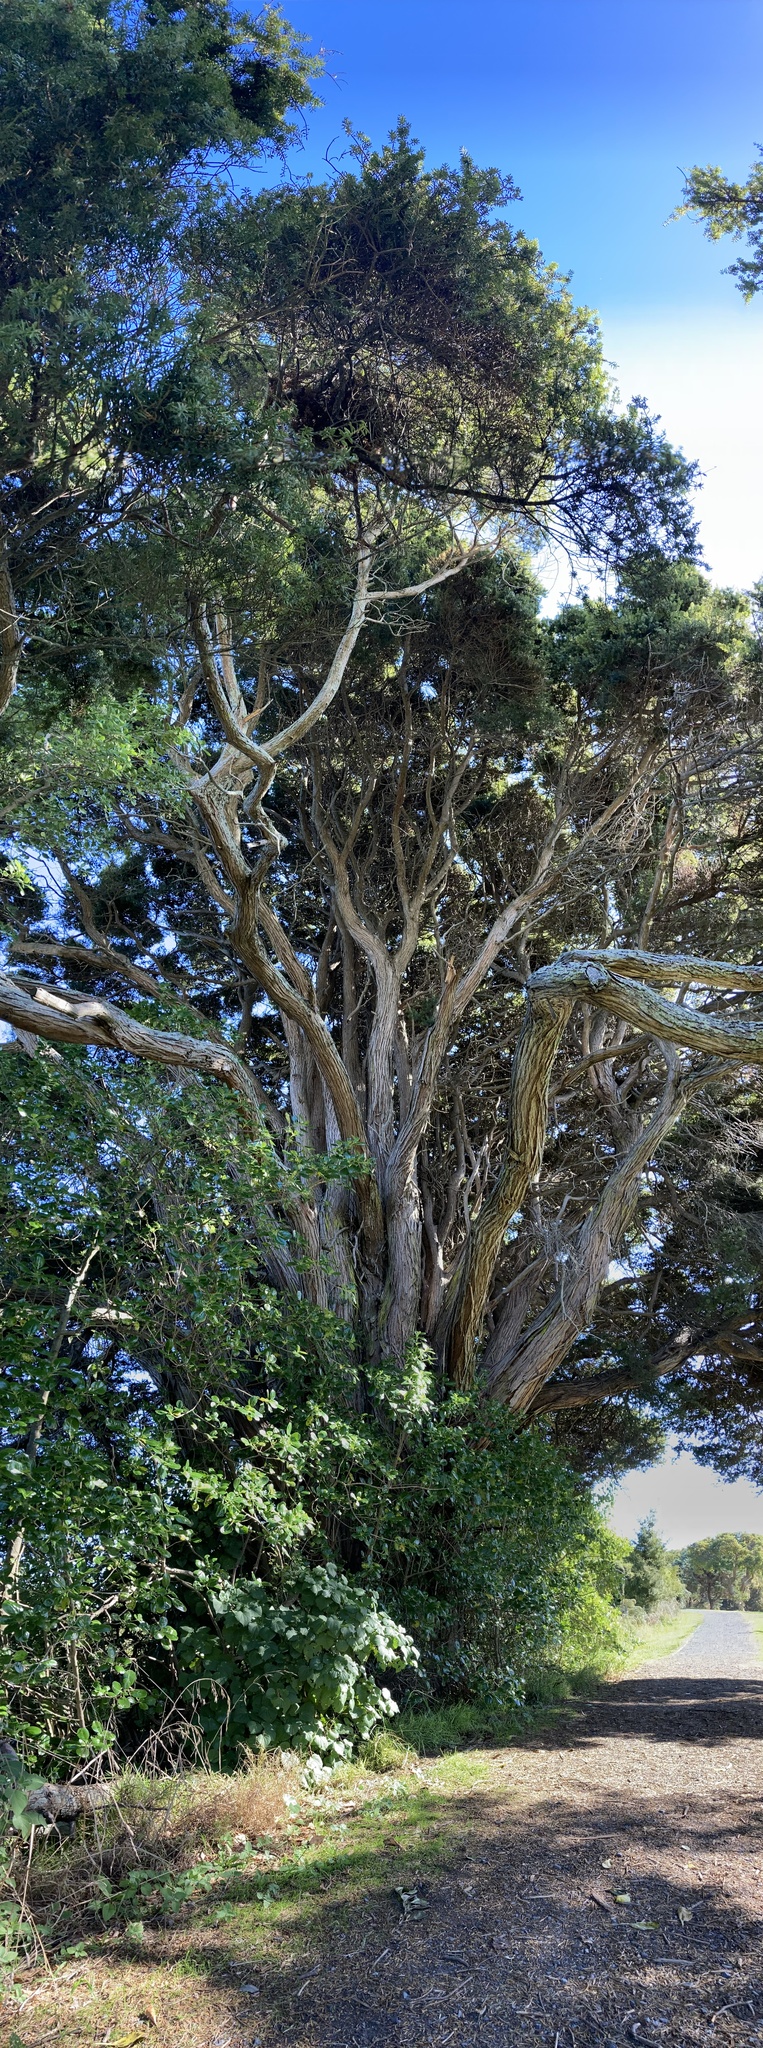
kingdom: Plantae
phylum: Tracheophyta
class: Pinopsida
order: Pinales
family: Podocarpaceae
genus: Podocarpus
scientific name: Podocarpus totara
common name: Totara
